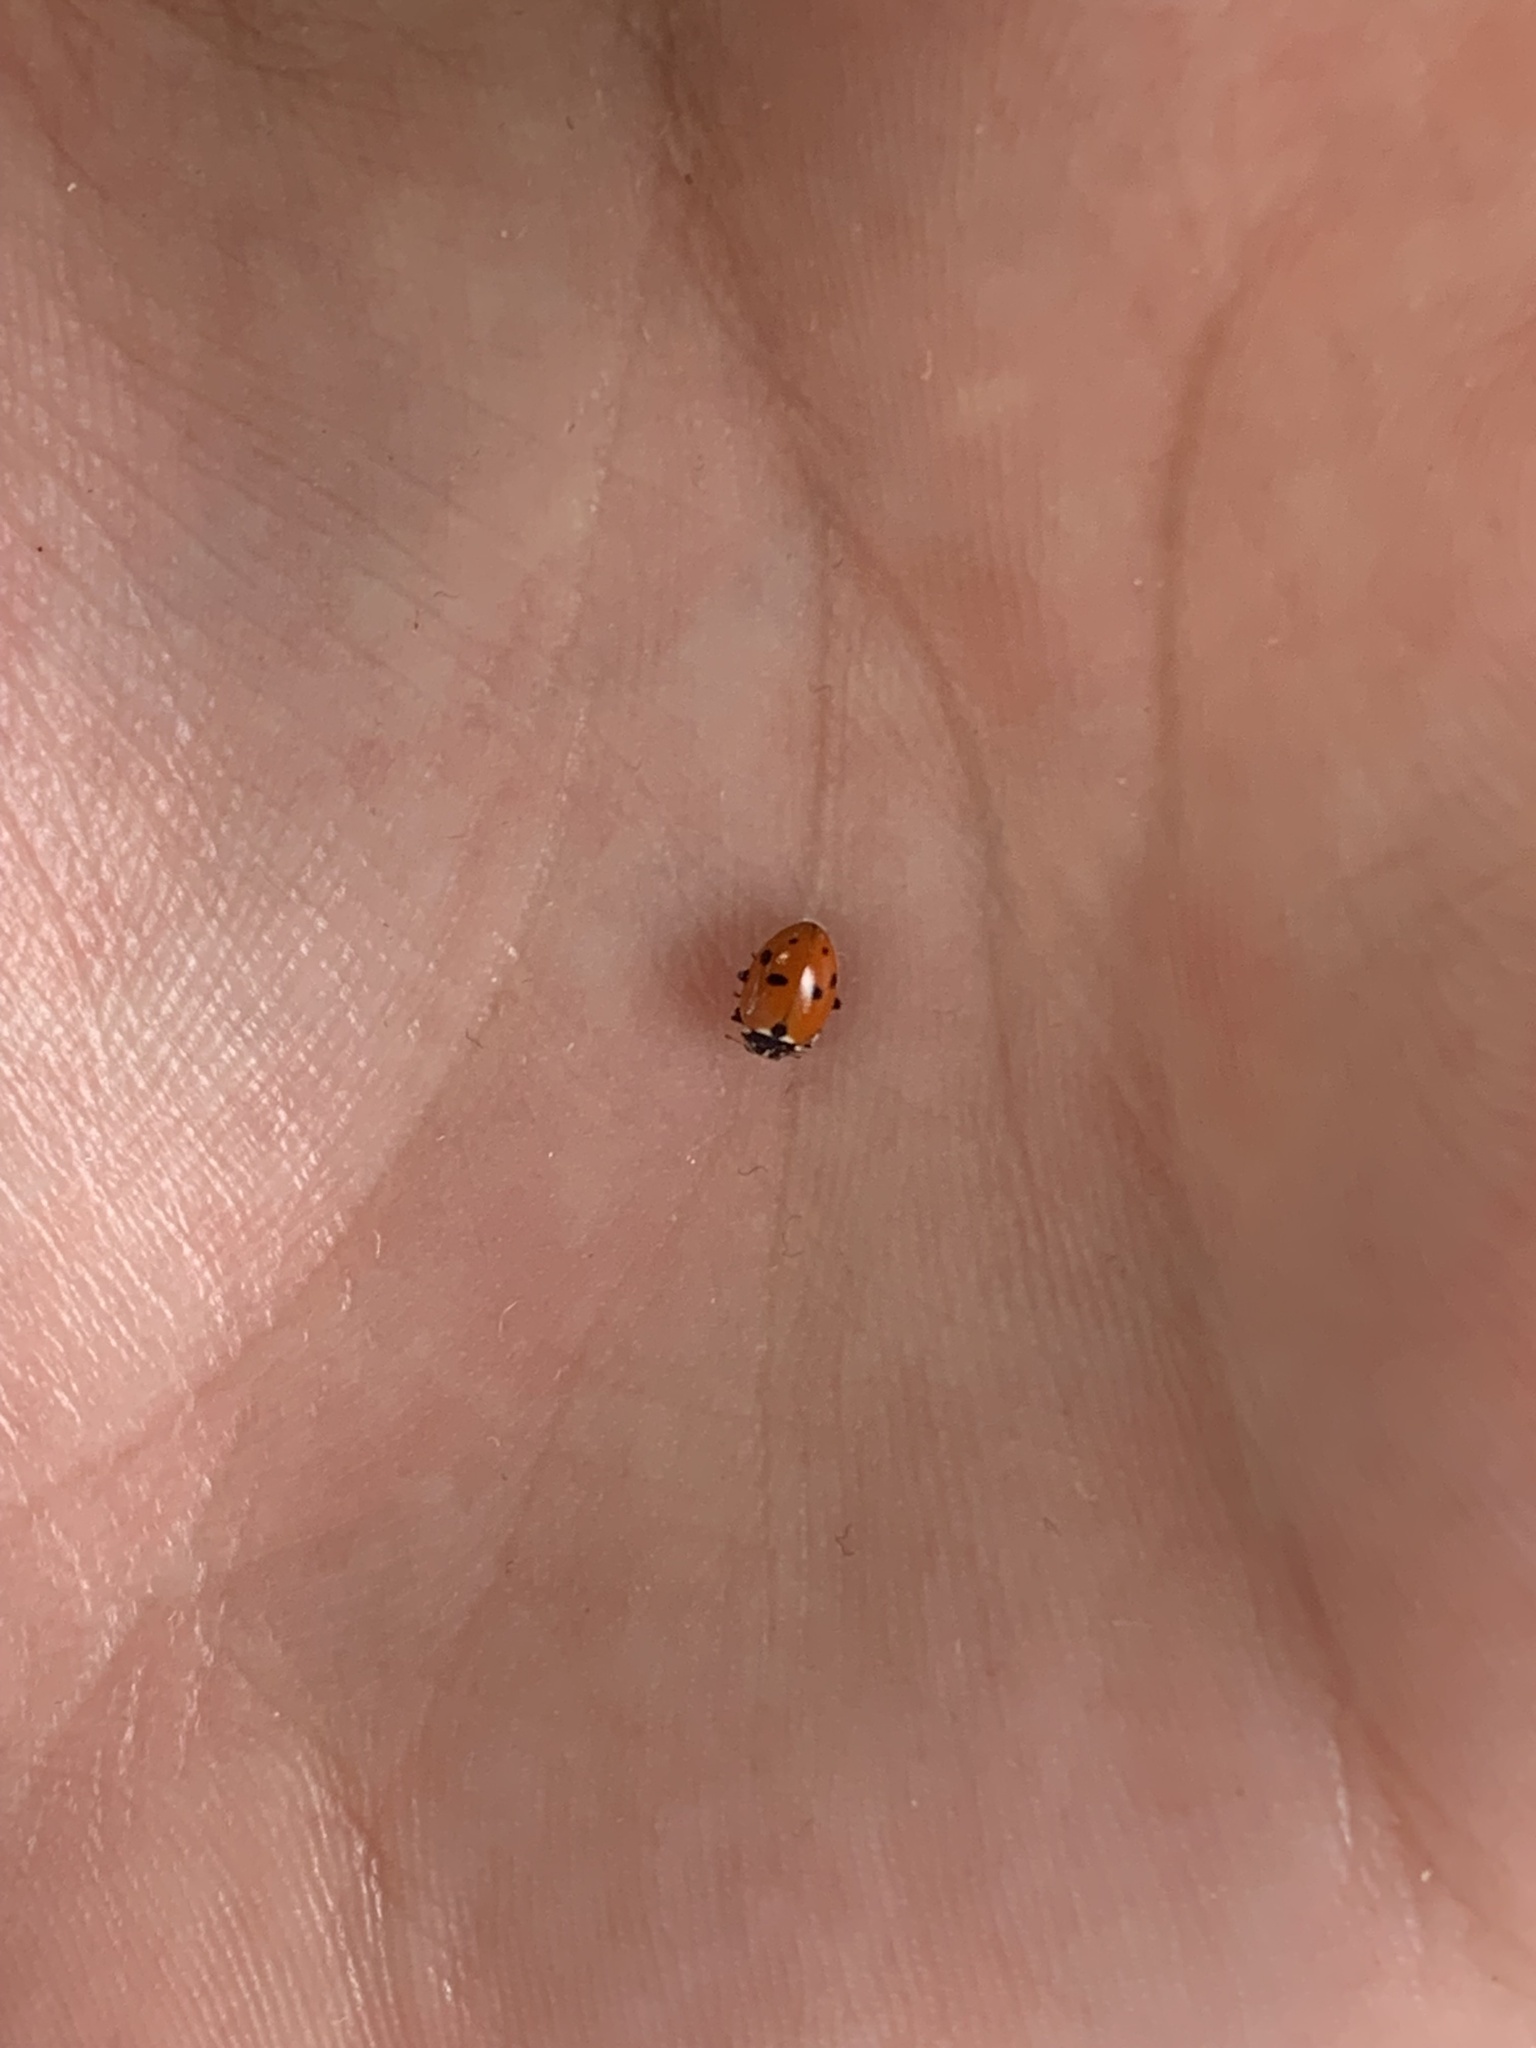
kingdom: Animalia
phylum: Arthropoda
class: Insecta
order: Coleoptera
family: Coccinellidae
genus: Hippodamia
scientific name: Hippodamia variegata
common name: Ladybird beetle
